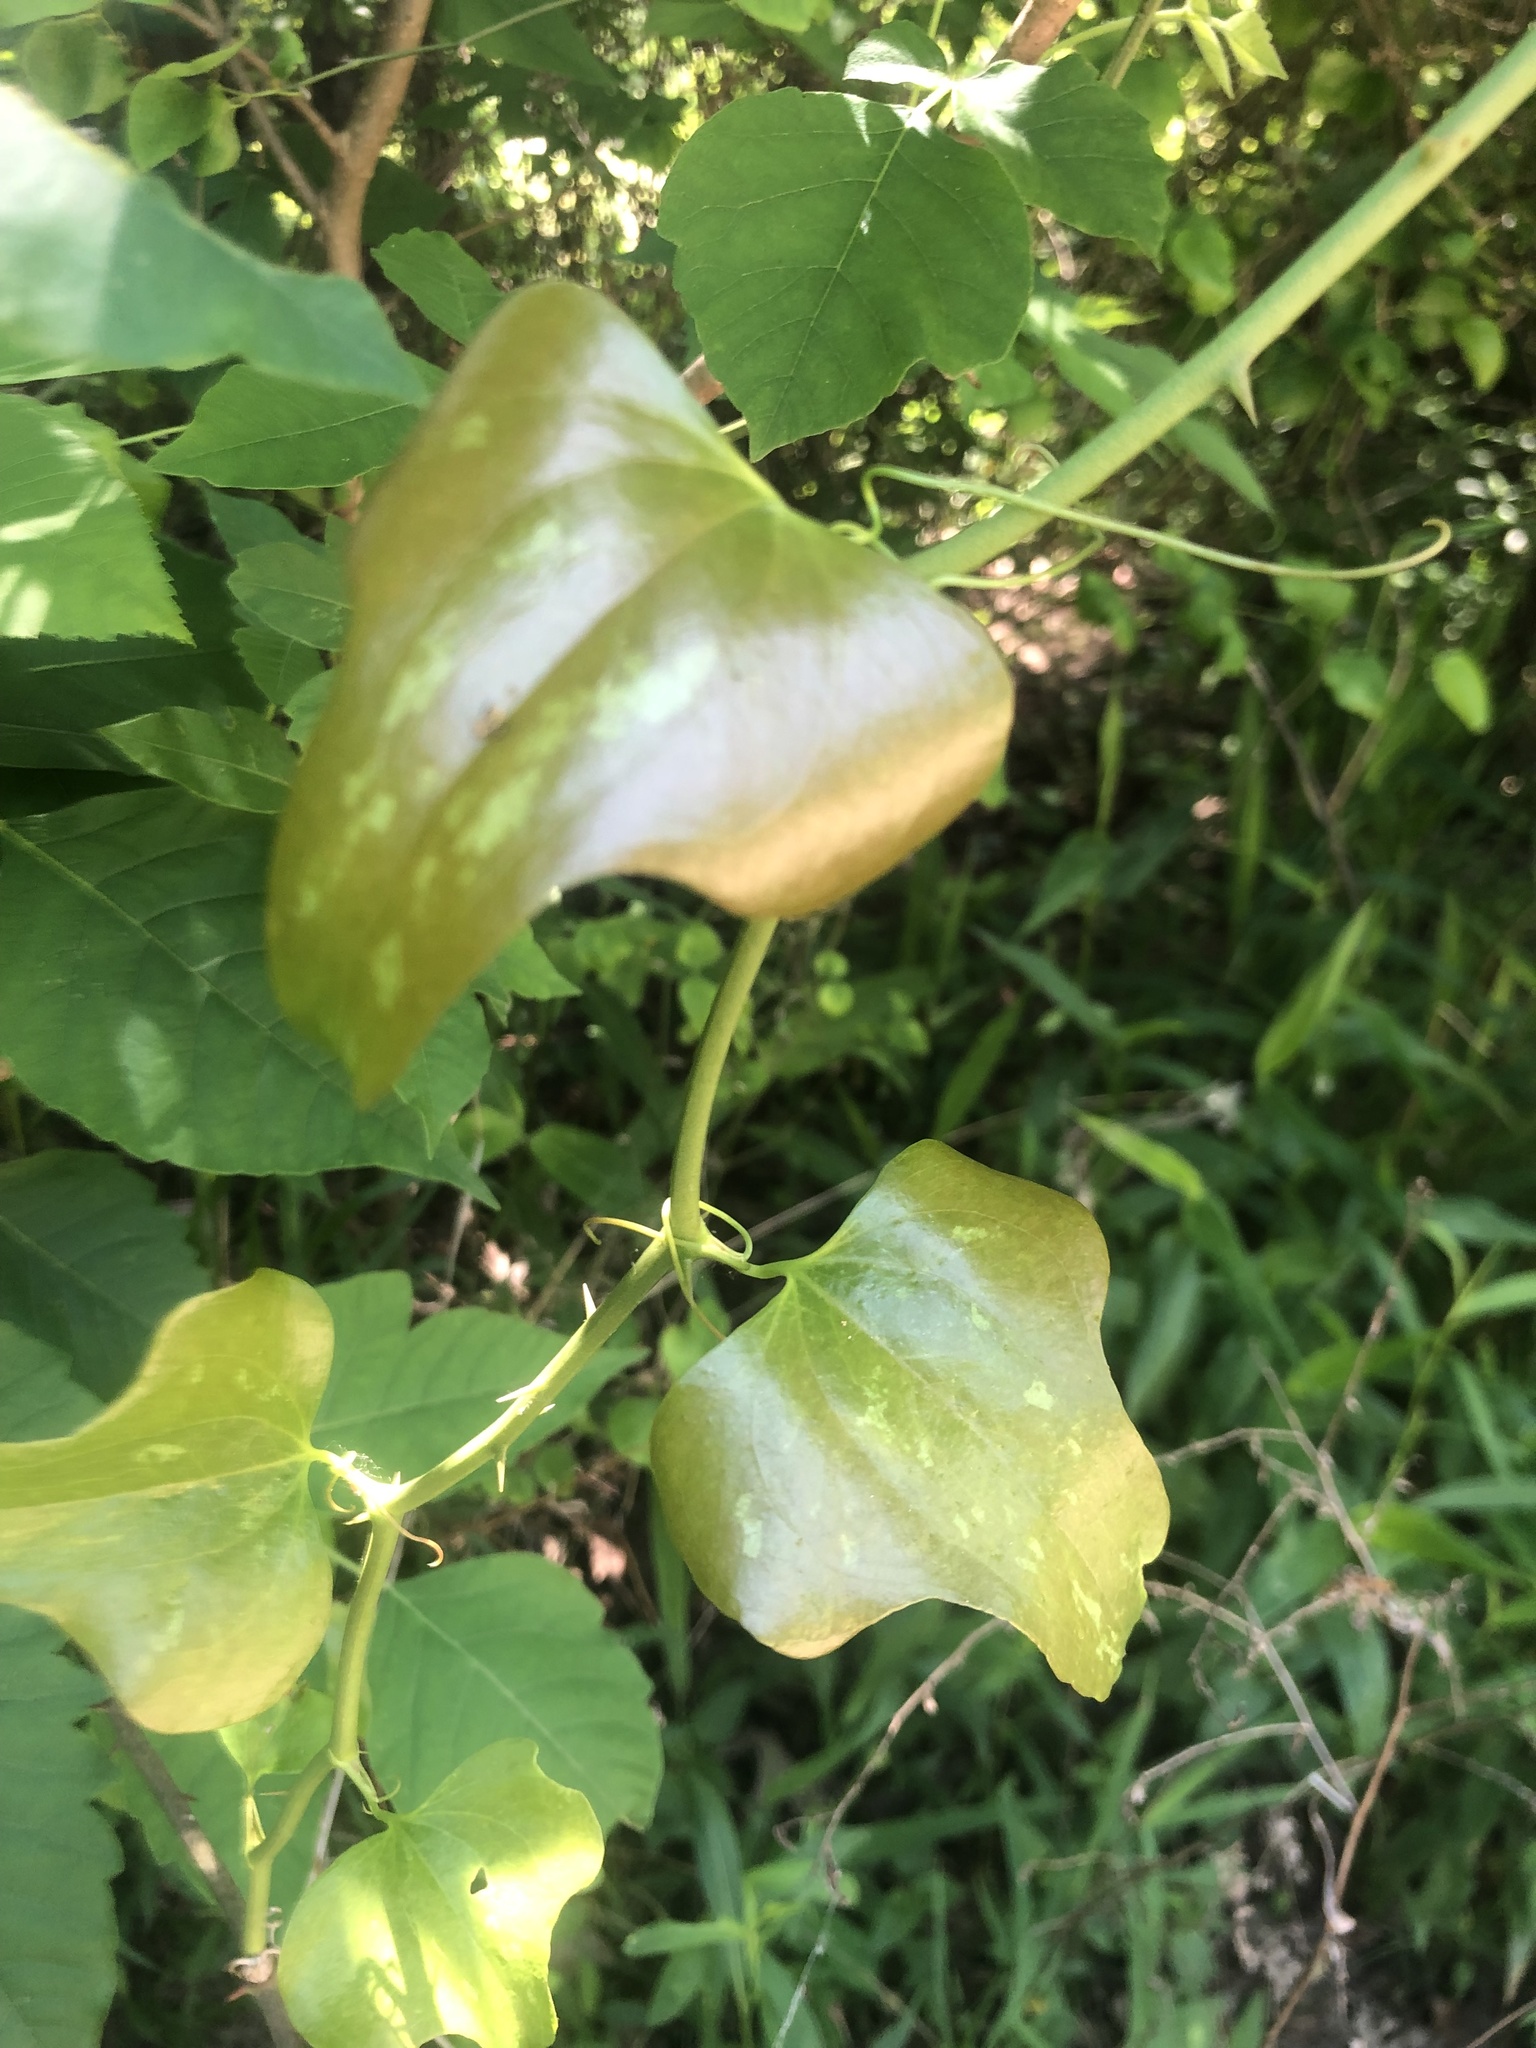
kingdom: Plantae
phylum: Tracheophyta
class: Liliopsida
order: Liliales
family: Smilacaceae
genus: Smilax
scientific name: Smilax bona-nox
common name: Catbrier
